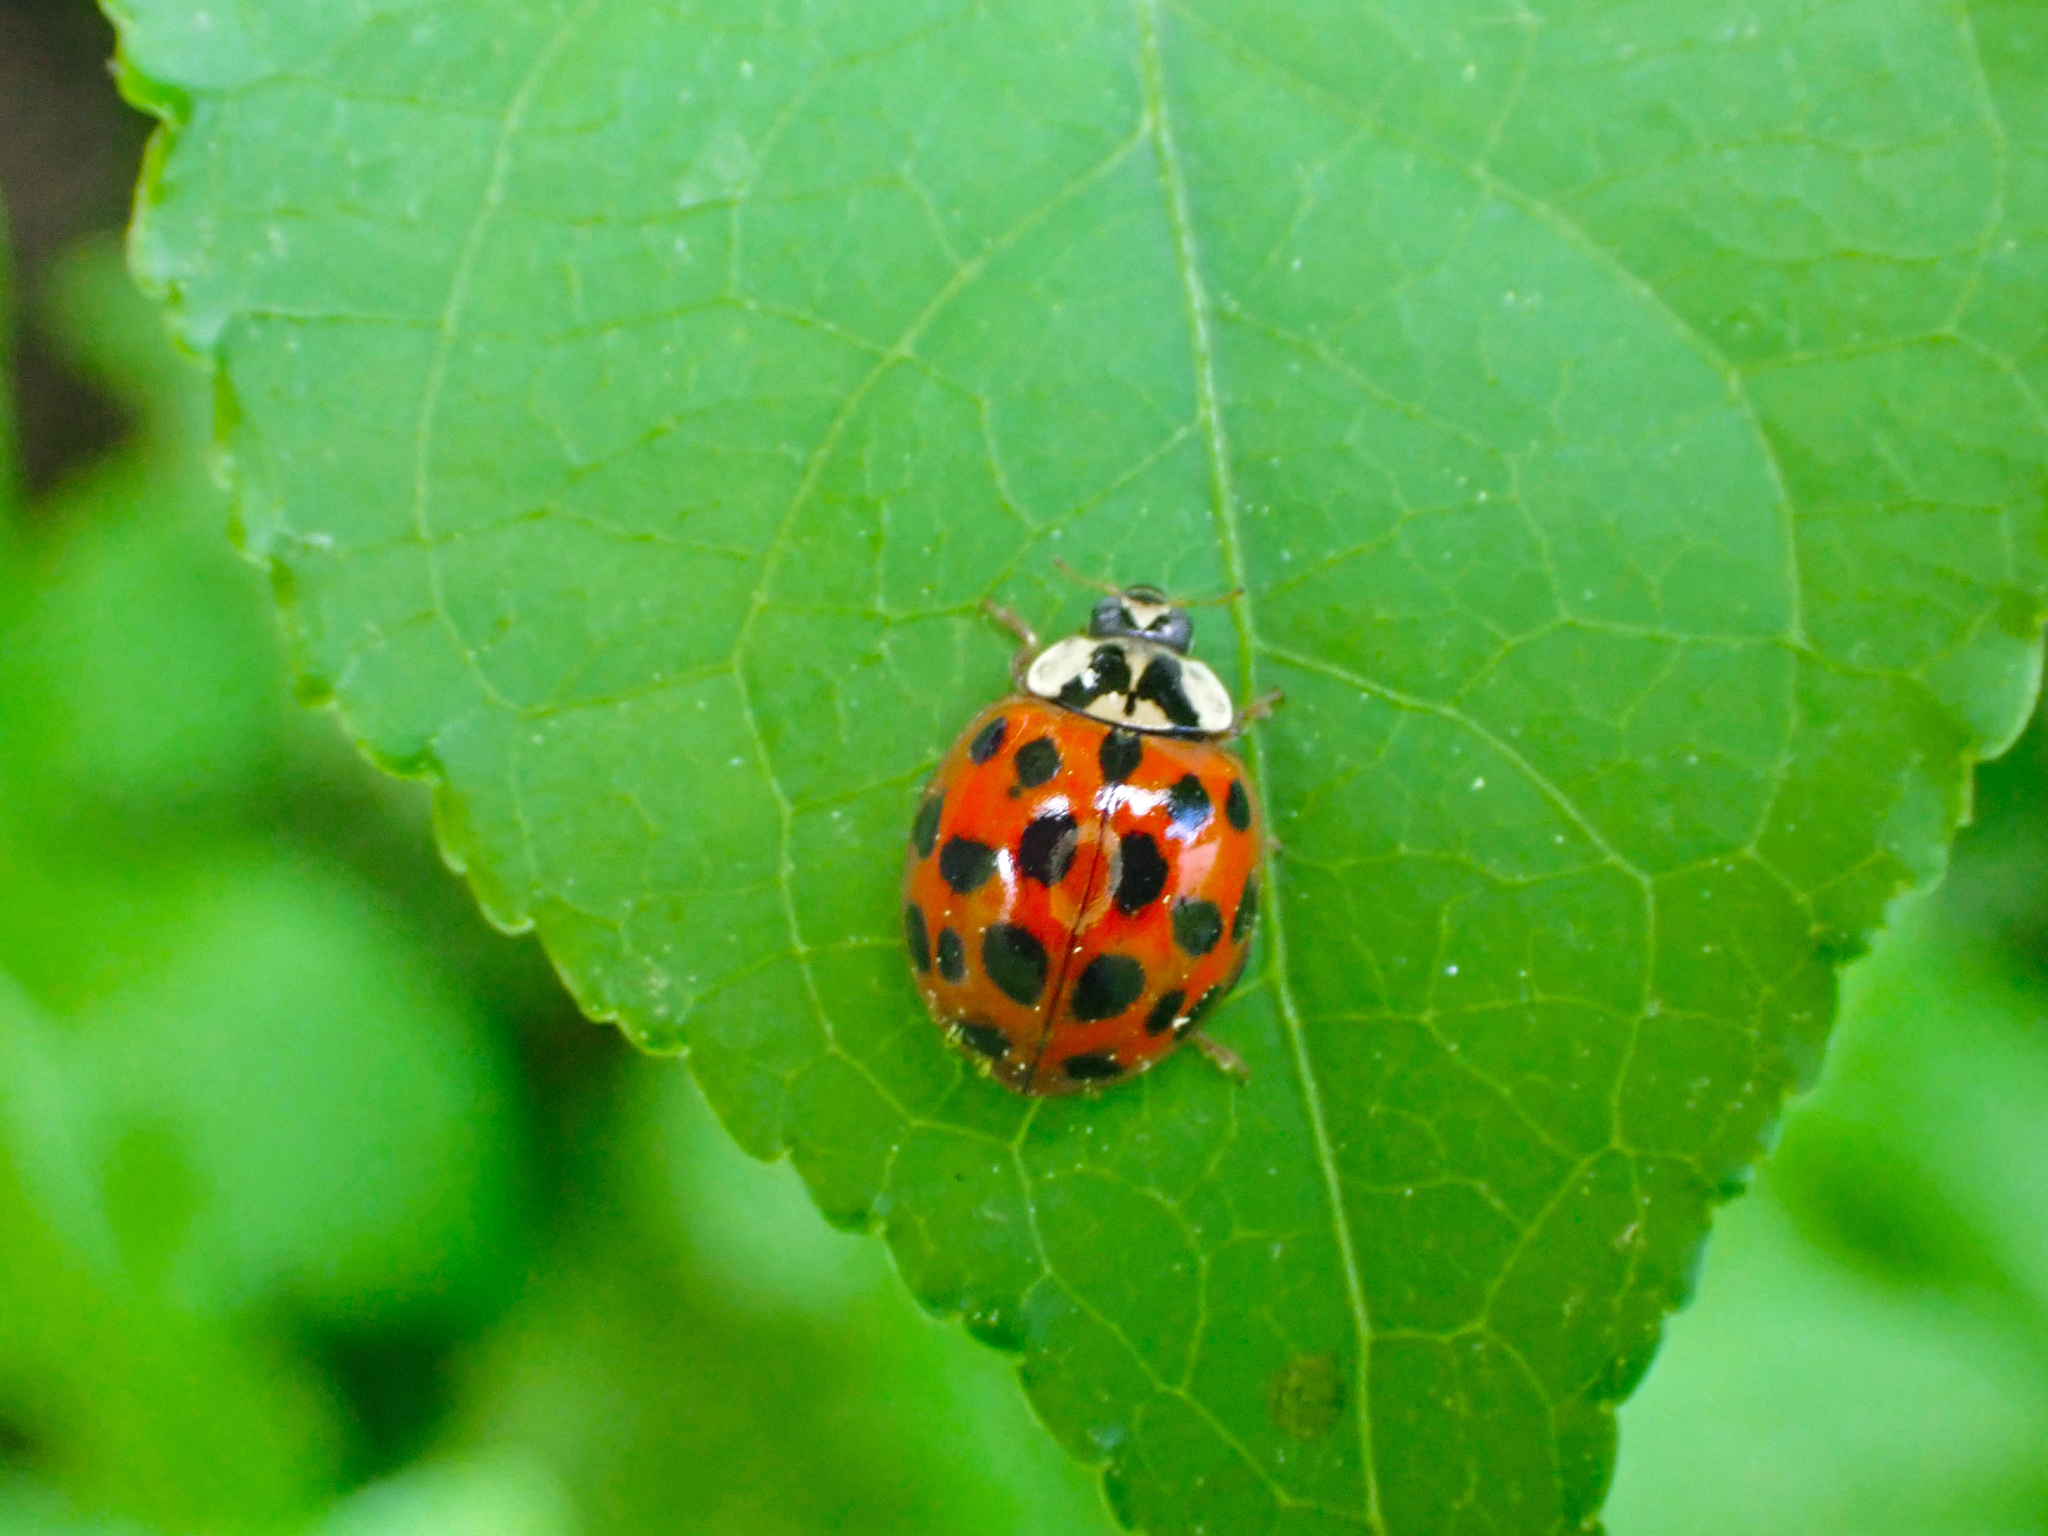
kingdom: Animalia
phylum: Arthropoda
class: Insecta
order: Coleoptera
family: Coccinellidae
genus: Harmonia
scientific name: Harmonia axyridis
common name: Harlequin ladybird
